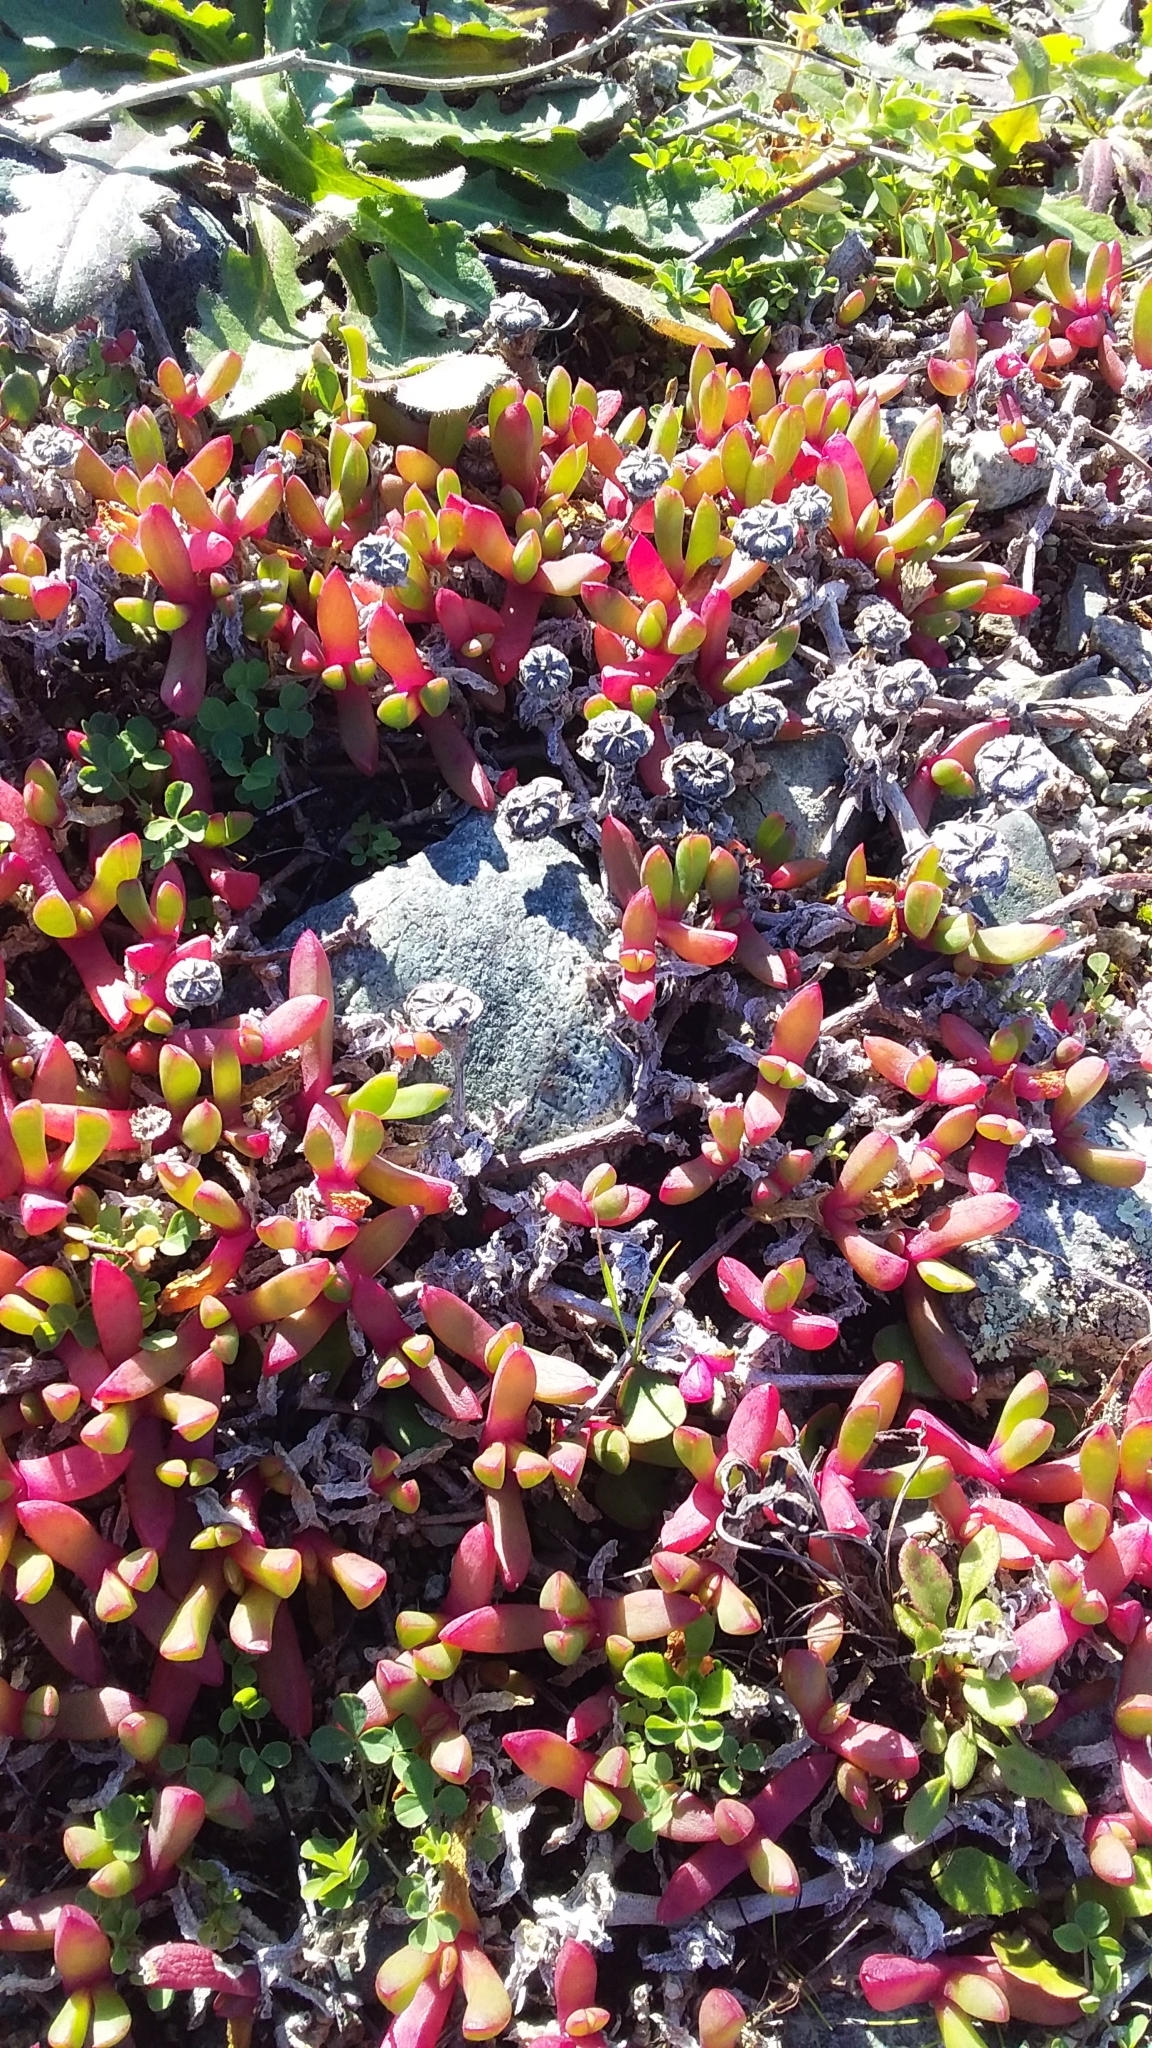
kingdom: Plantae
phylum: Tracheophyta
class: Magnoliopsida
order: Caryophyllales
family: Aizoaceae
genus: Disphyma
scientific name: Disphyma australe
